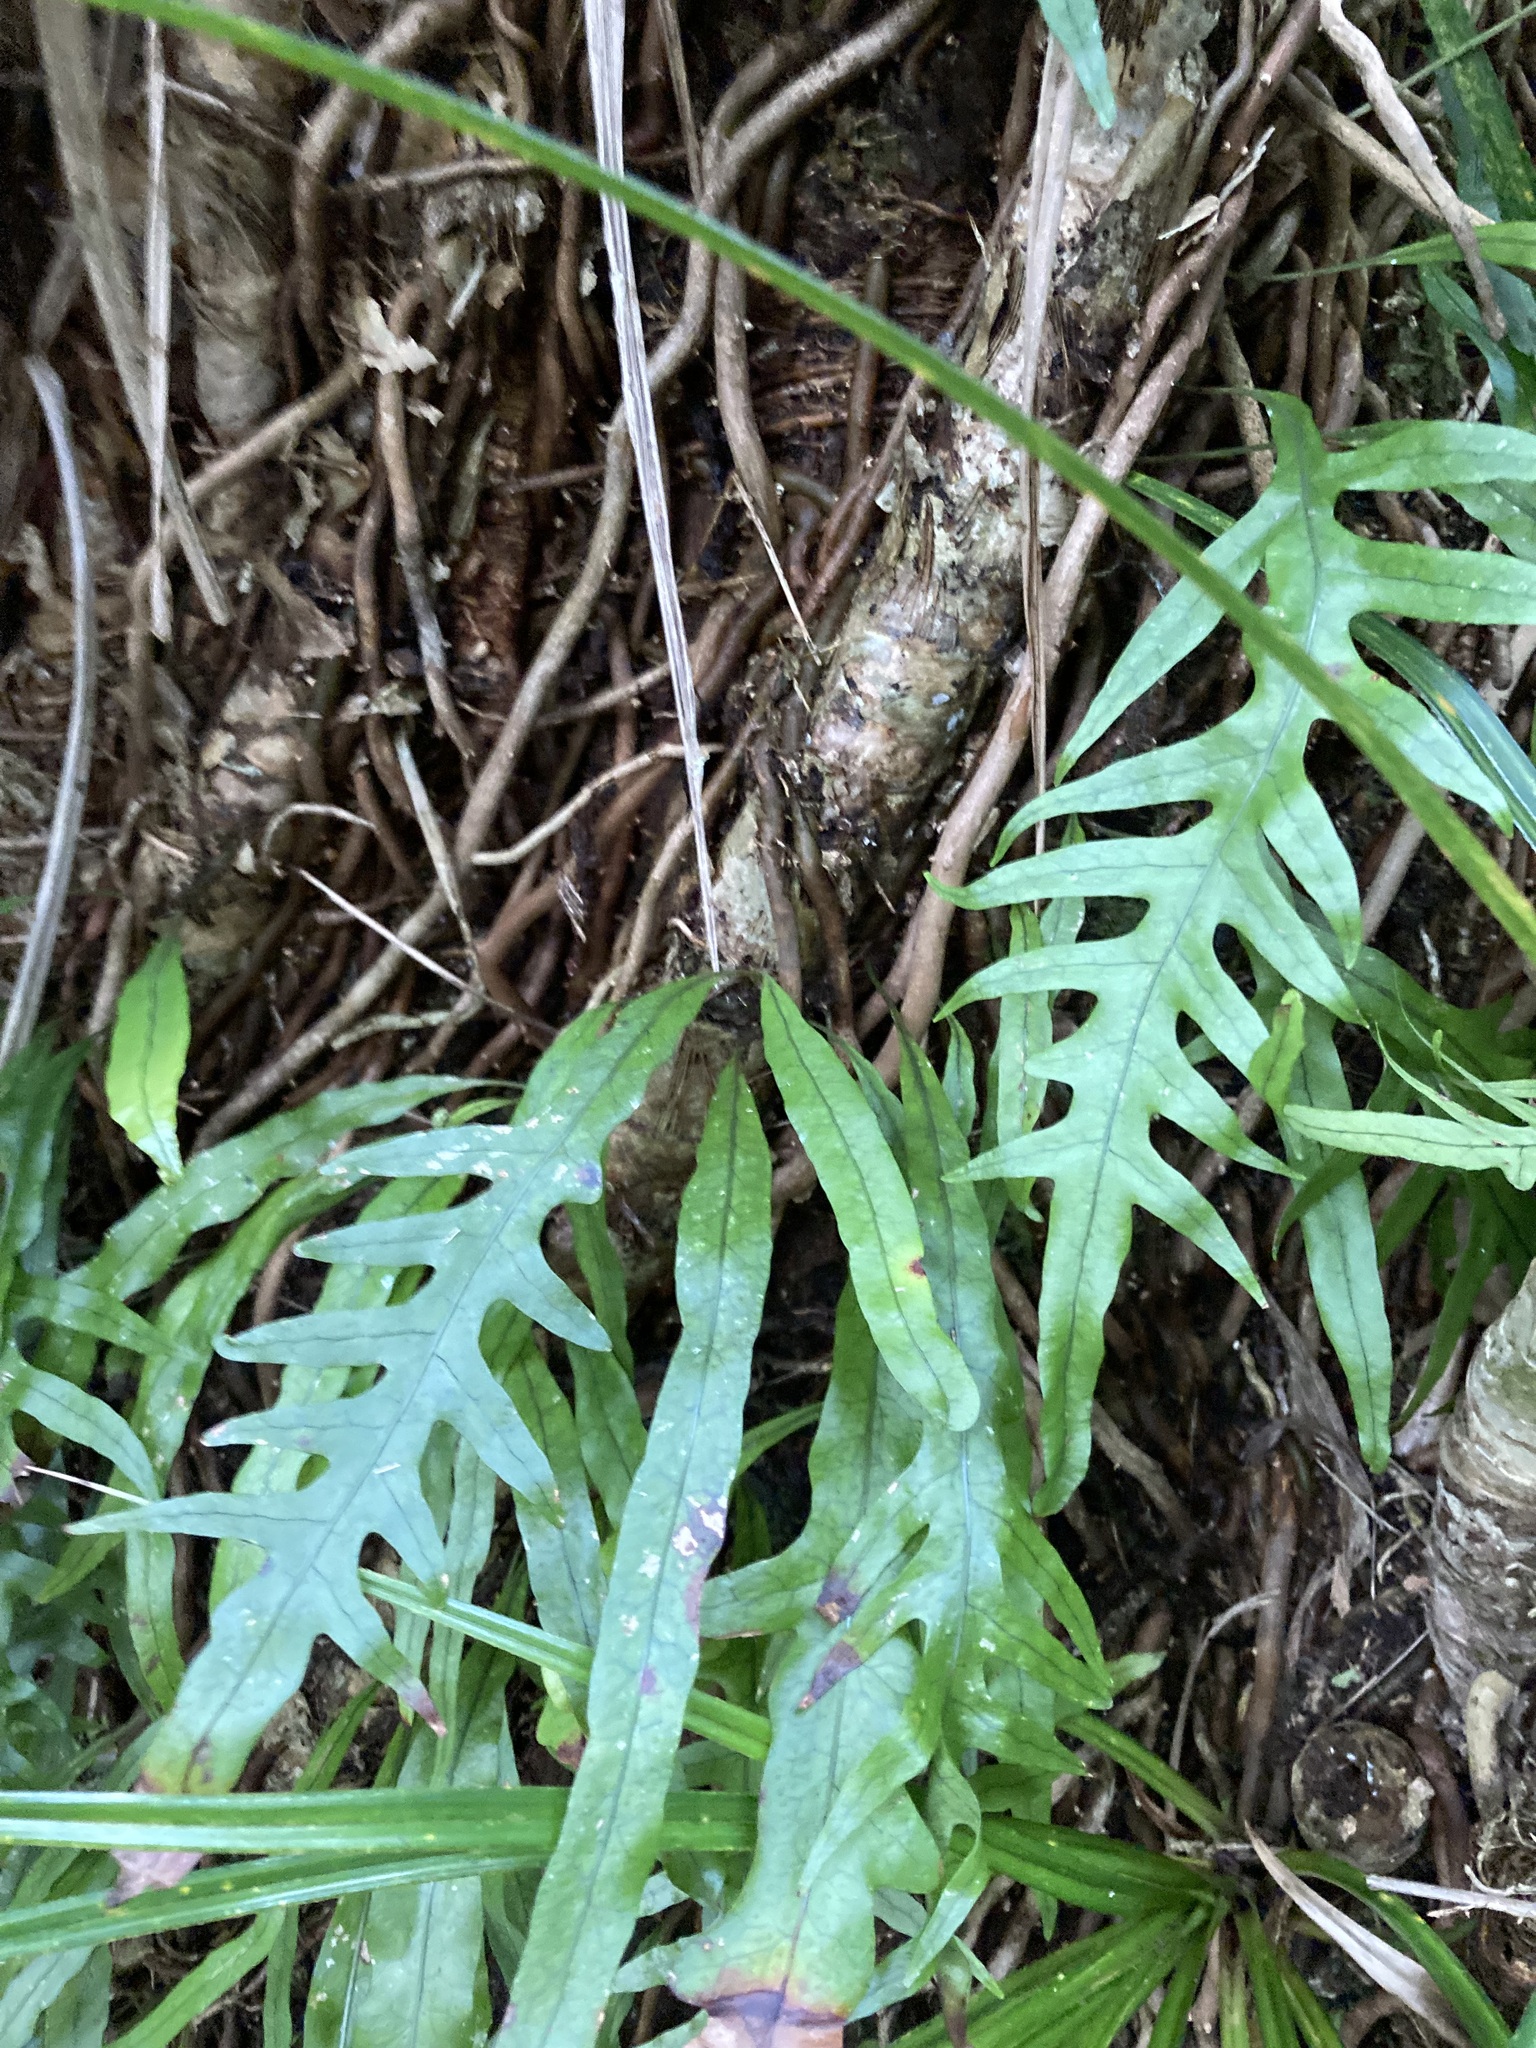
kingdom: Plantae
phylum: Tracheophyta
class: Polypodiopsida
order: Polypodiales
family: Polypodiaceae
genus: Lecanopteris
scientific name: Lecanopteris scandens
